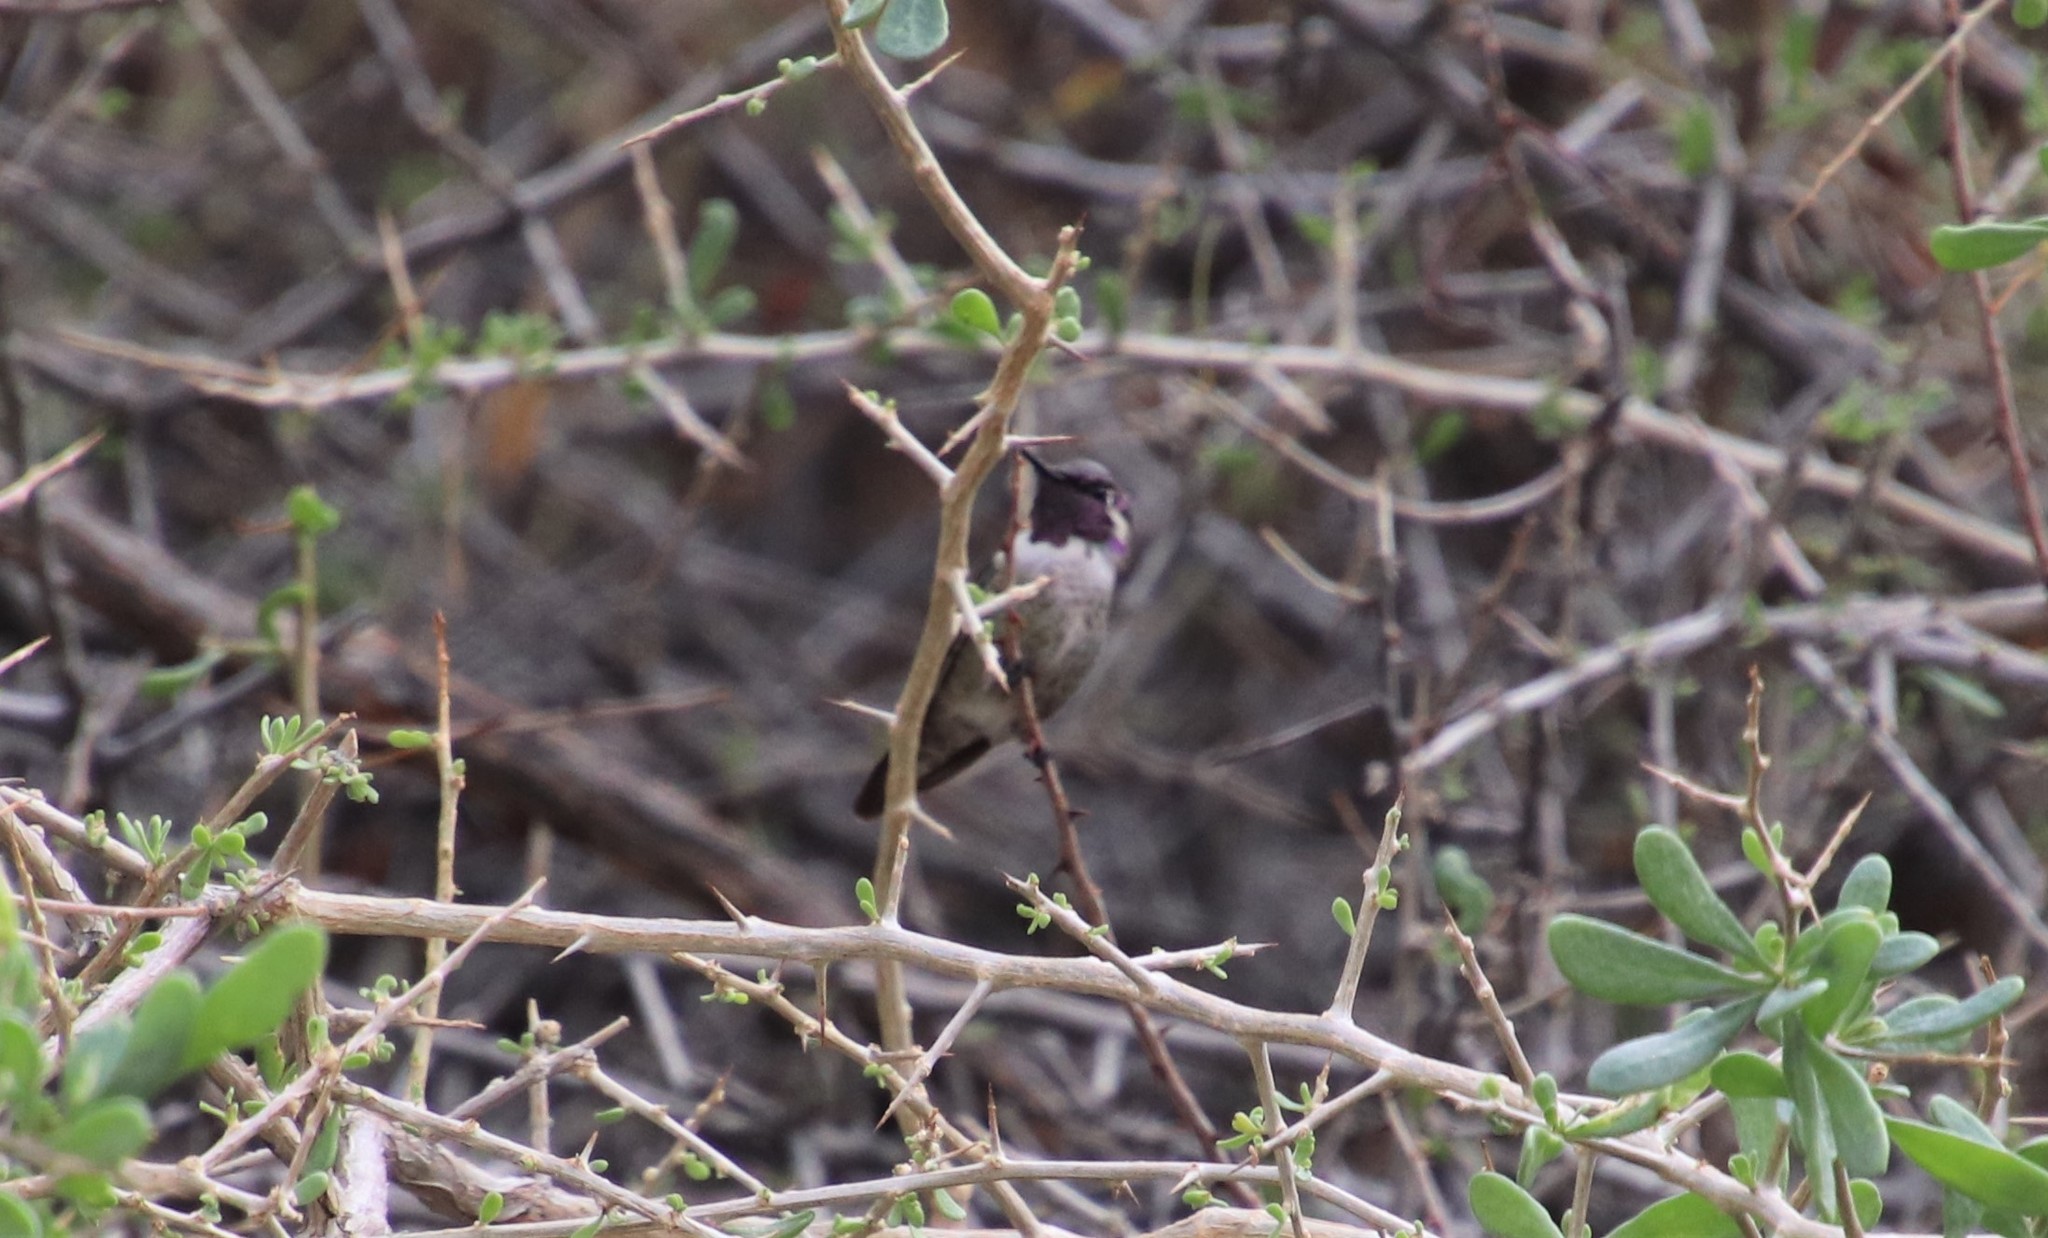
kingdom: Animalia
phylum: Chordata
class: Aves
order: Apodiformes
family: Trochilidae
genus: Calypte
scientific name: Calypte costae
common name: Costa's hummingbird
